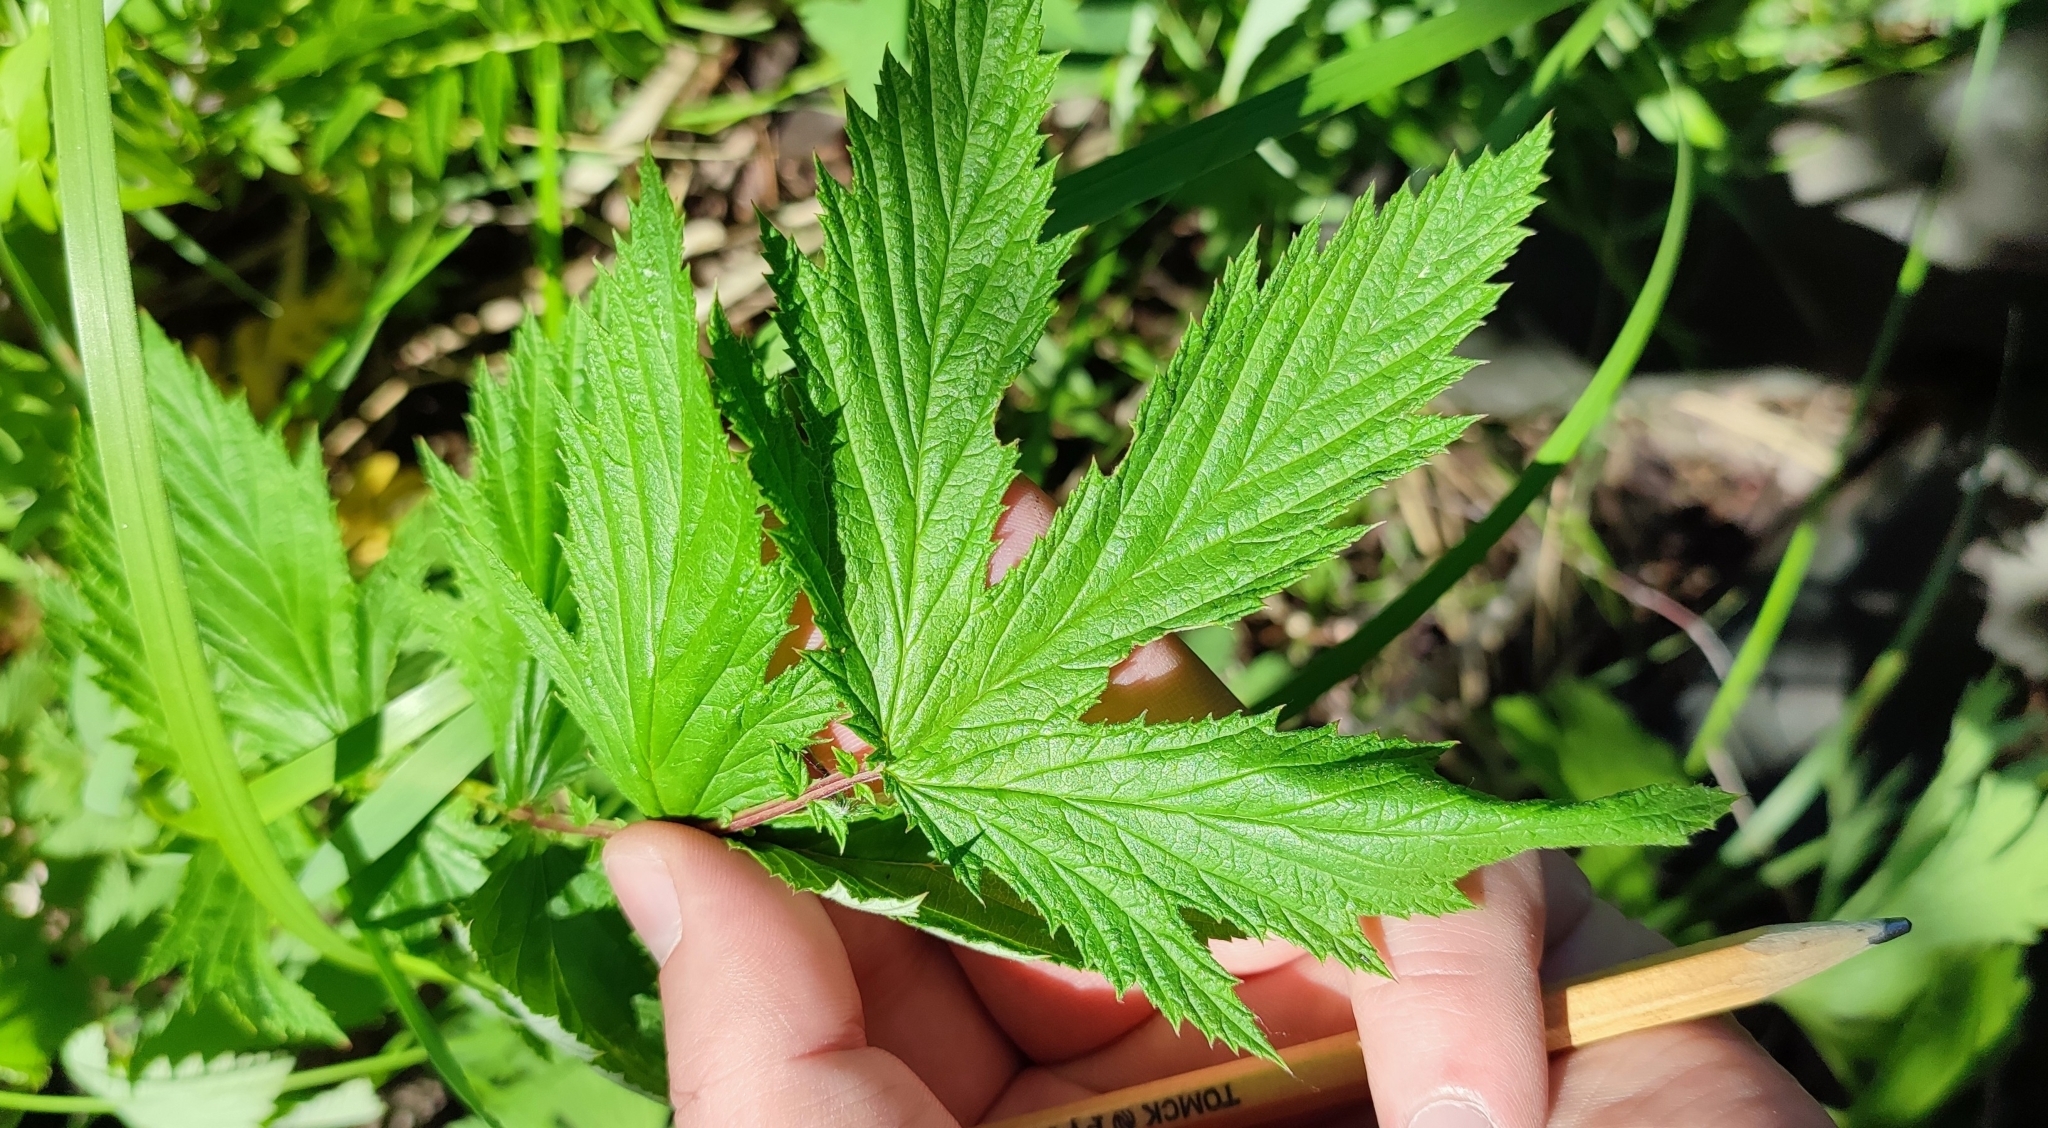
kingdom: Plantae
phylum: Tracheophyta
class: Magnoliopsida
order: Rosales
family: Rosaceae
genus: Filipendula
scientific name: Filipendula ulmaria
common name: Meadowsweet
